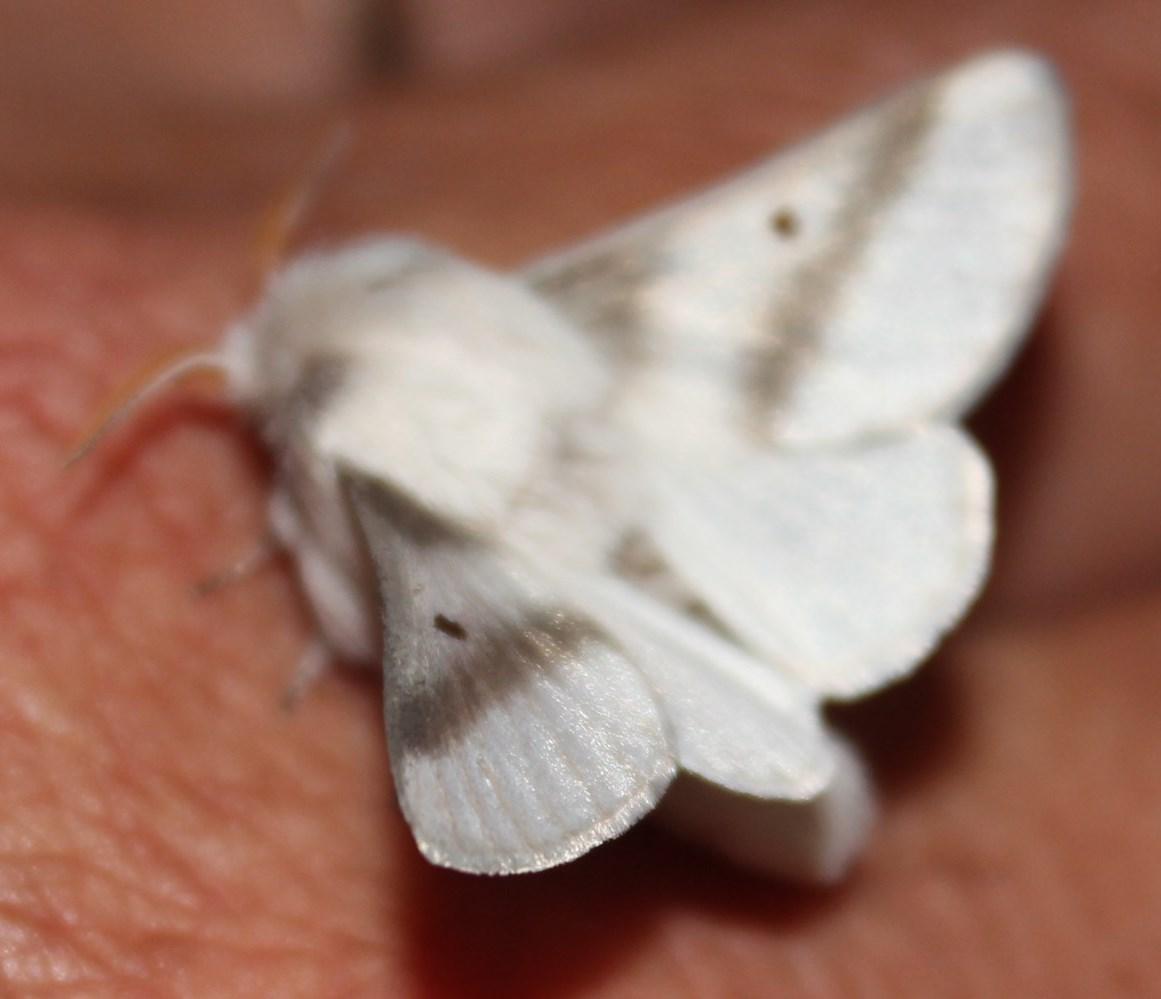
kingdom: Animalia
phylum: Arthropoda
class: Insecta
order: Lepidoptera
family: Lasiocampidae
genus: Bombycomorpha
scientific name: Bombycomorpha bifascia
